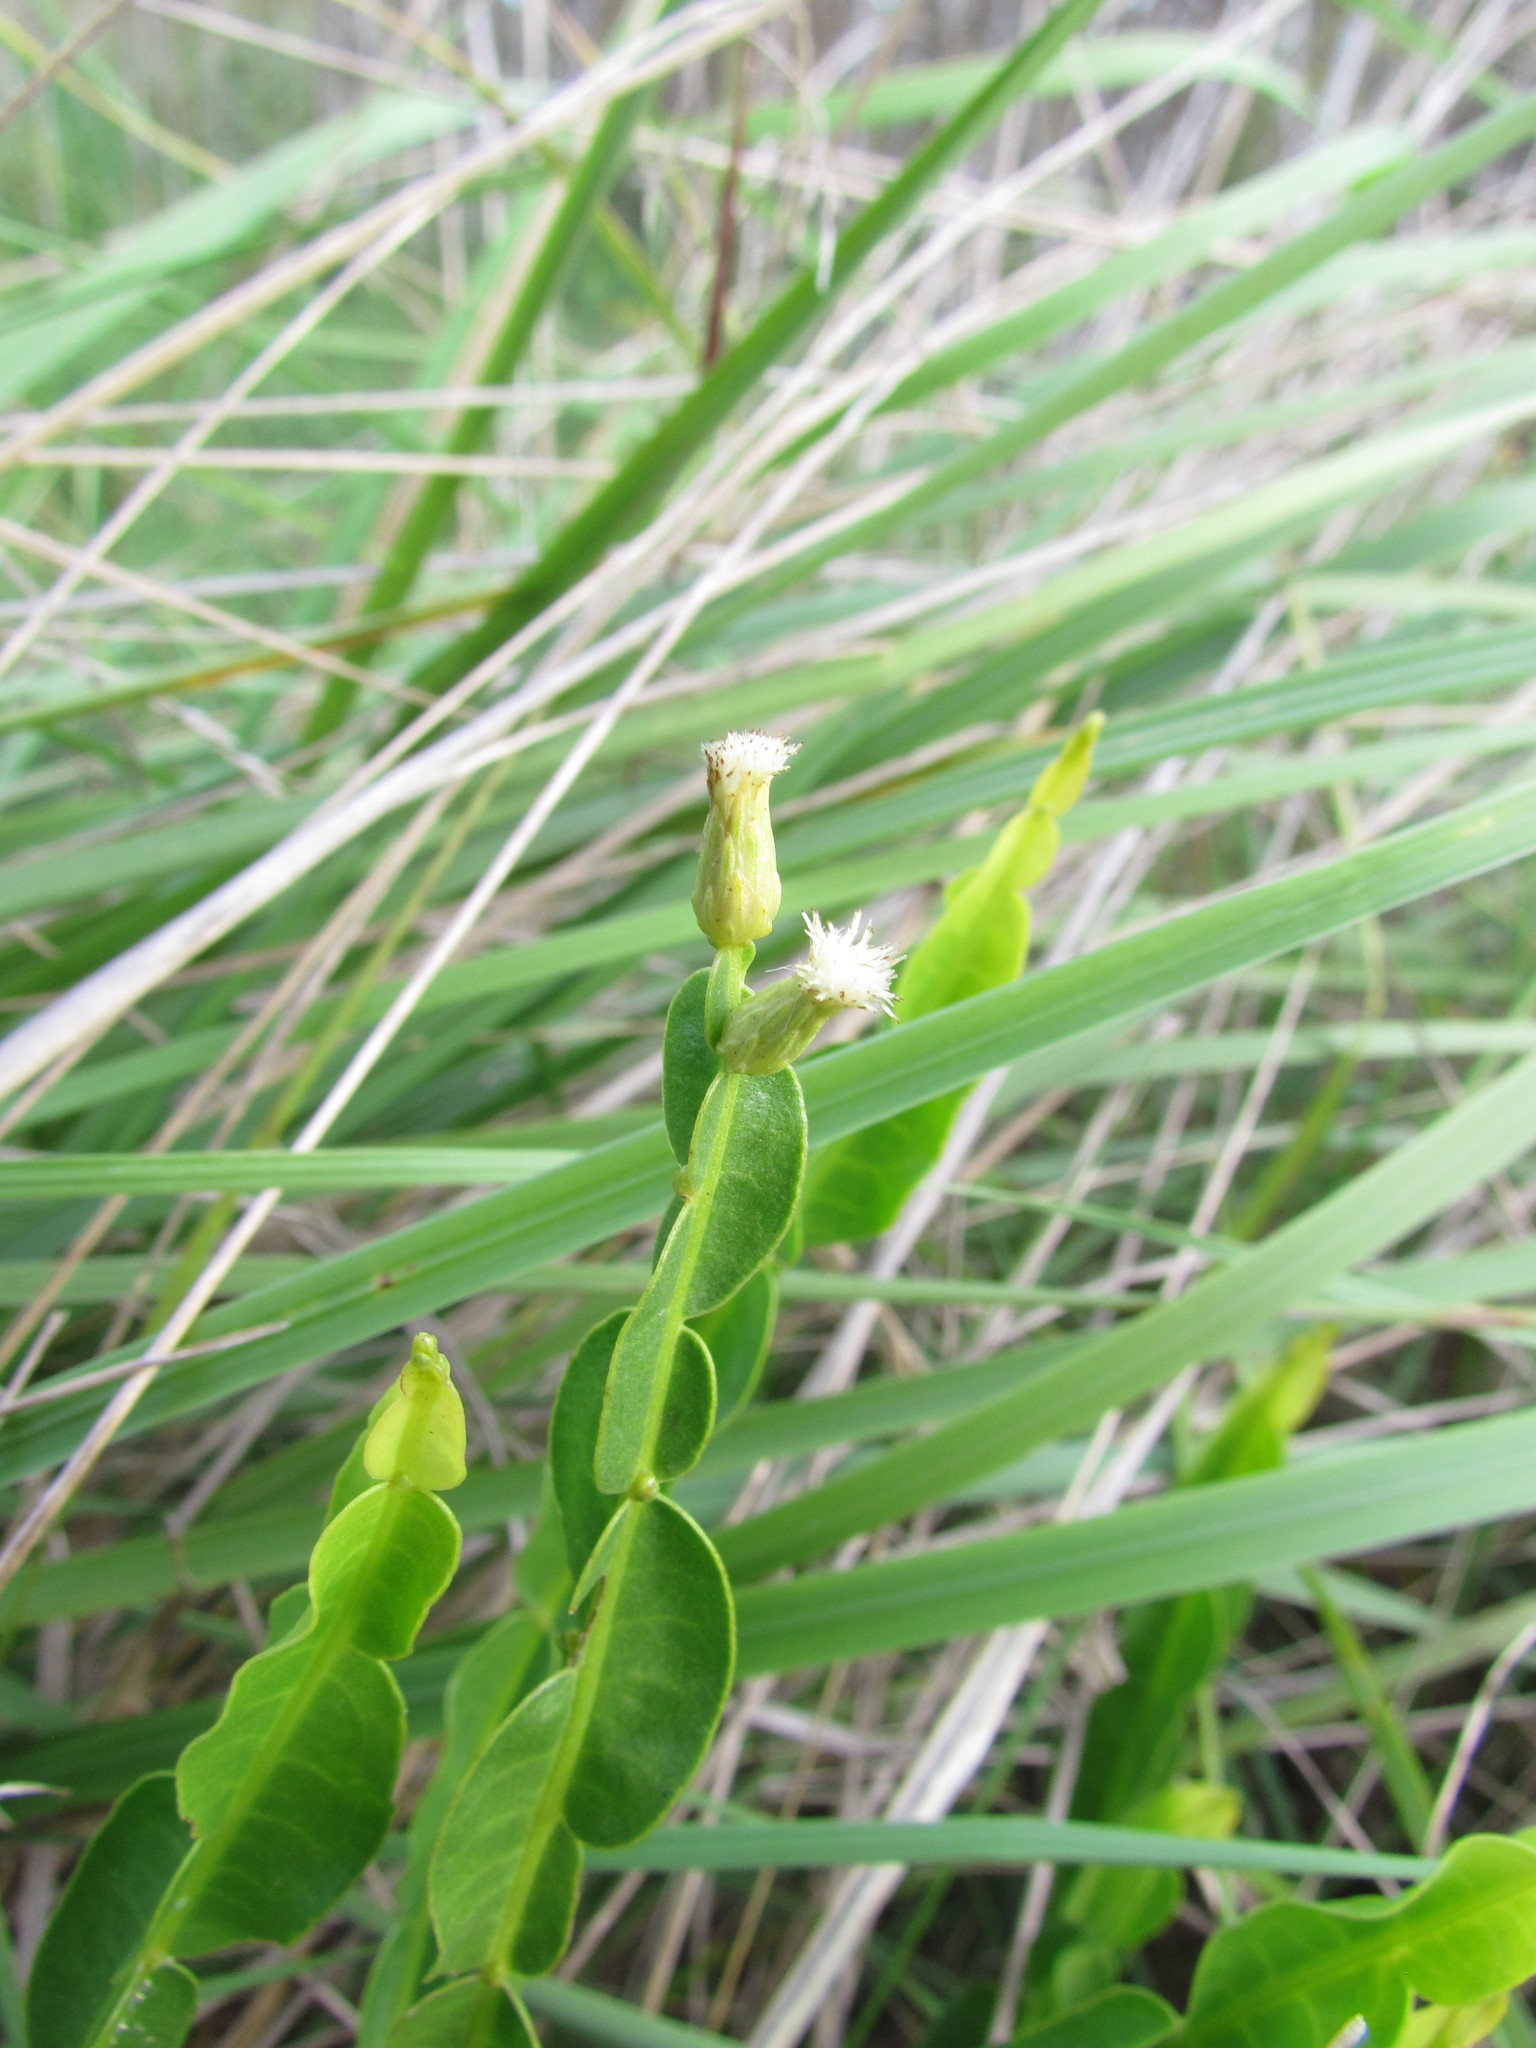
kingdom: Plantae
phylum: Tracheophyta
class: Magnoliopsida
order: Asterales
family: Asteraceae
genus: Baccharis
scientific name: Baccharis trimera
